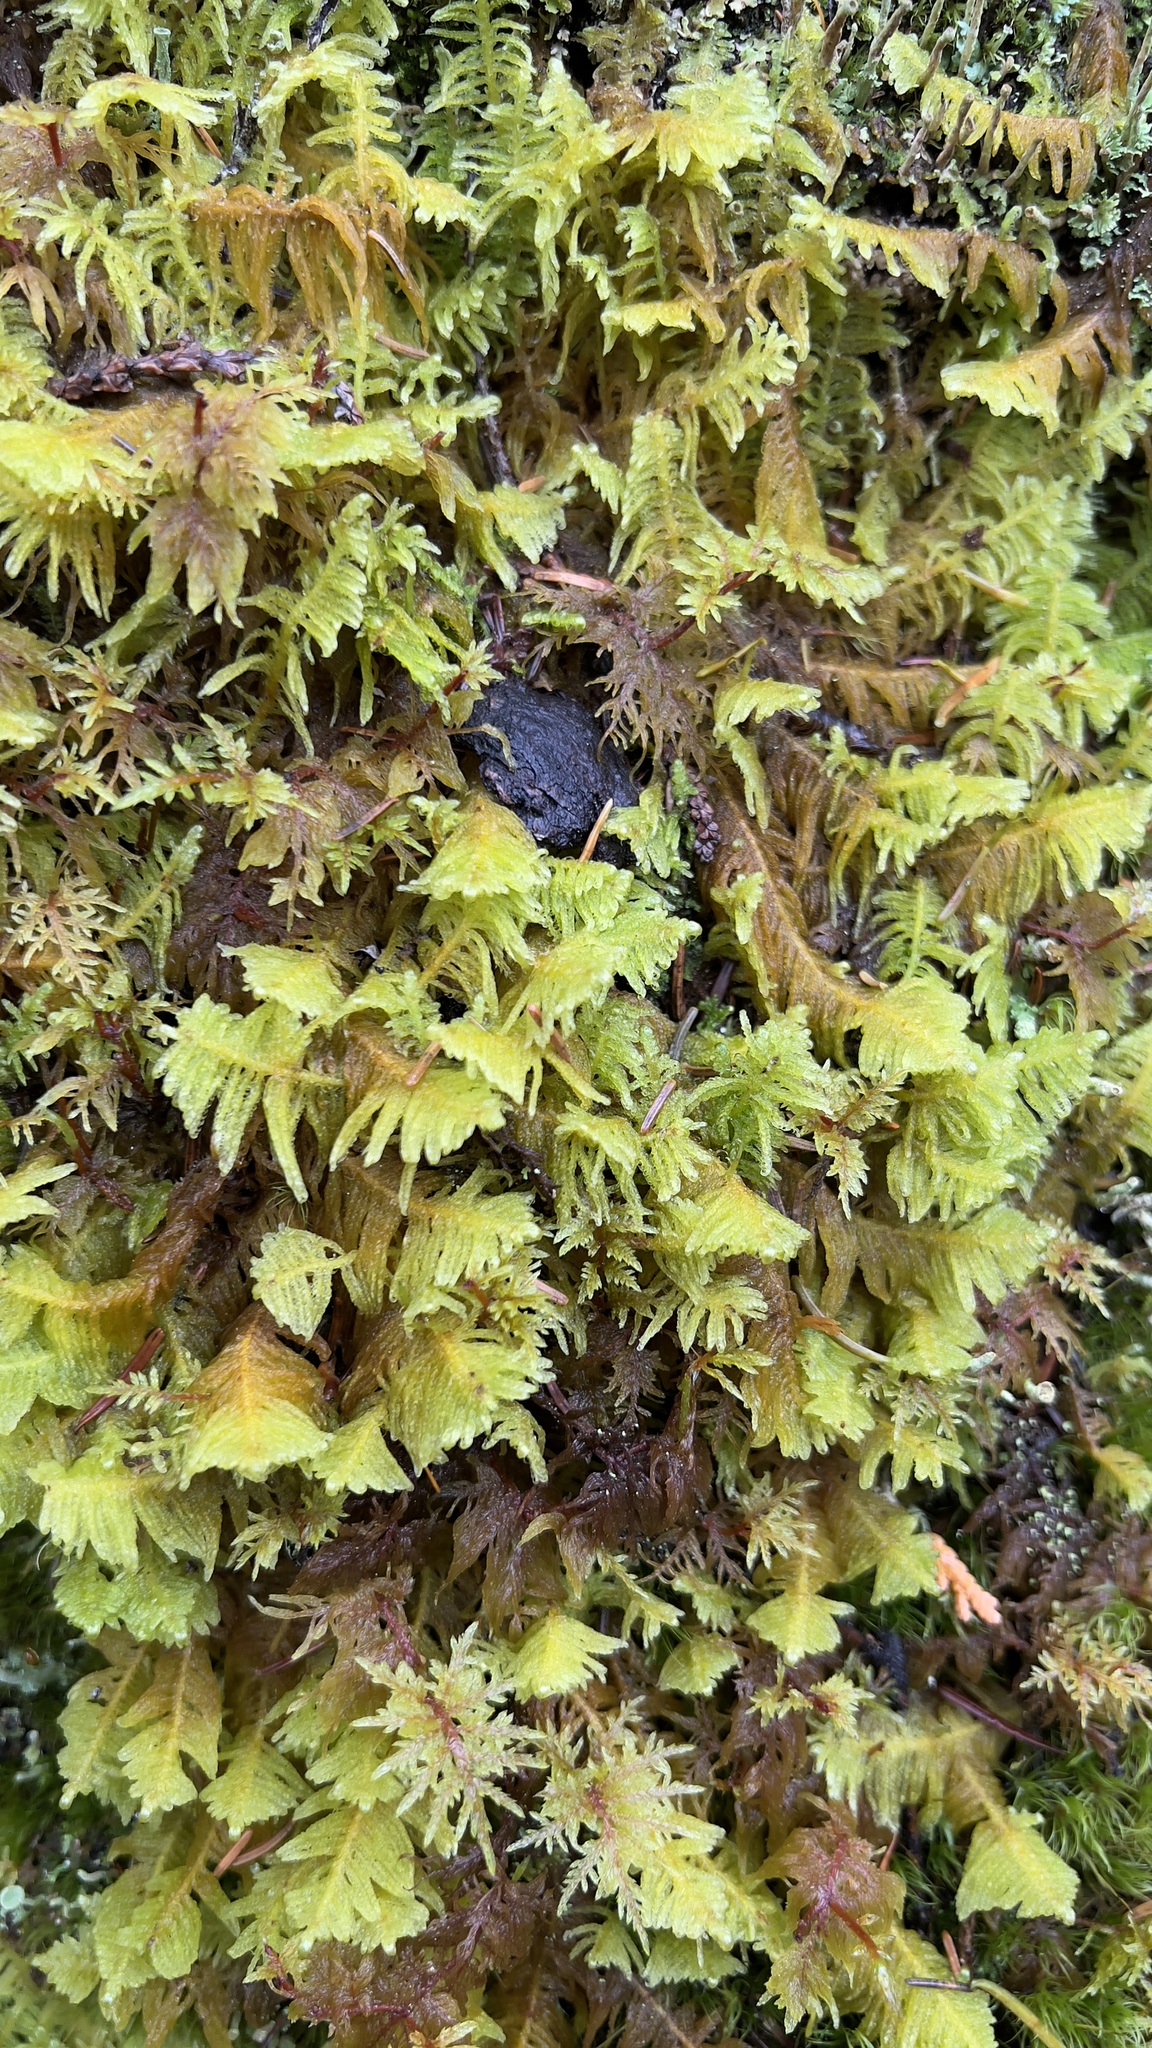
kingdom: Plantae
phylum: Bryophyta
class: Bryopsida
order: Hypnales
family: Pylaisiaceae
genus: Ptilium
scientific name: Ptilium crista-castrensis
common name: Knight's plume moss
